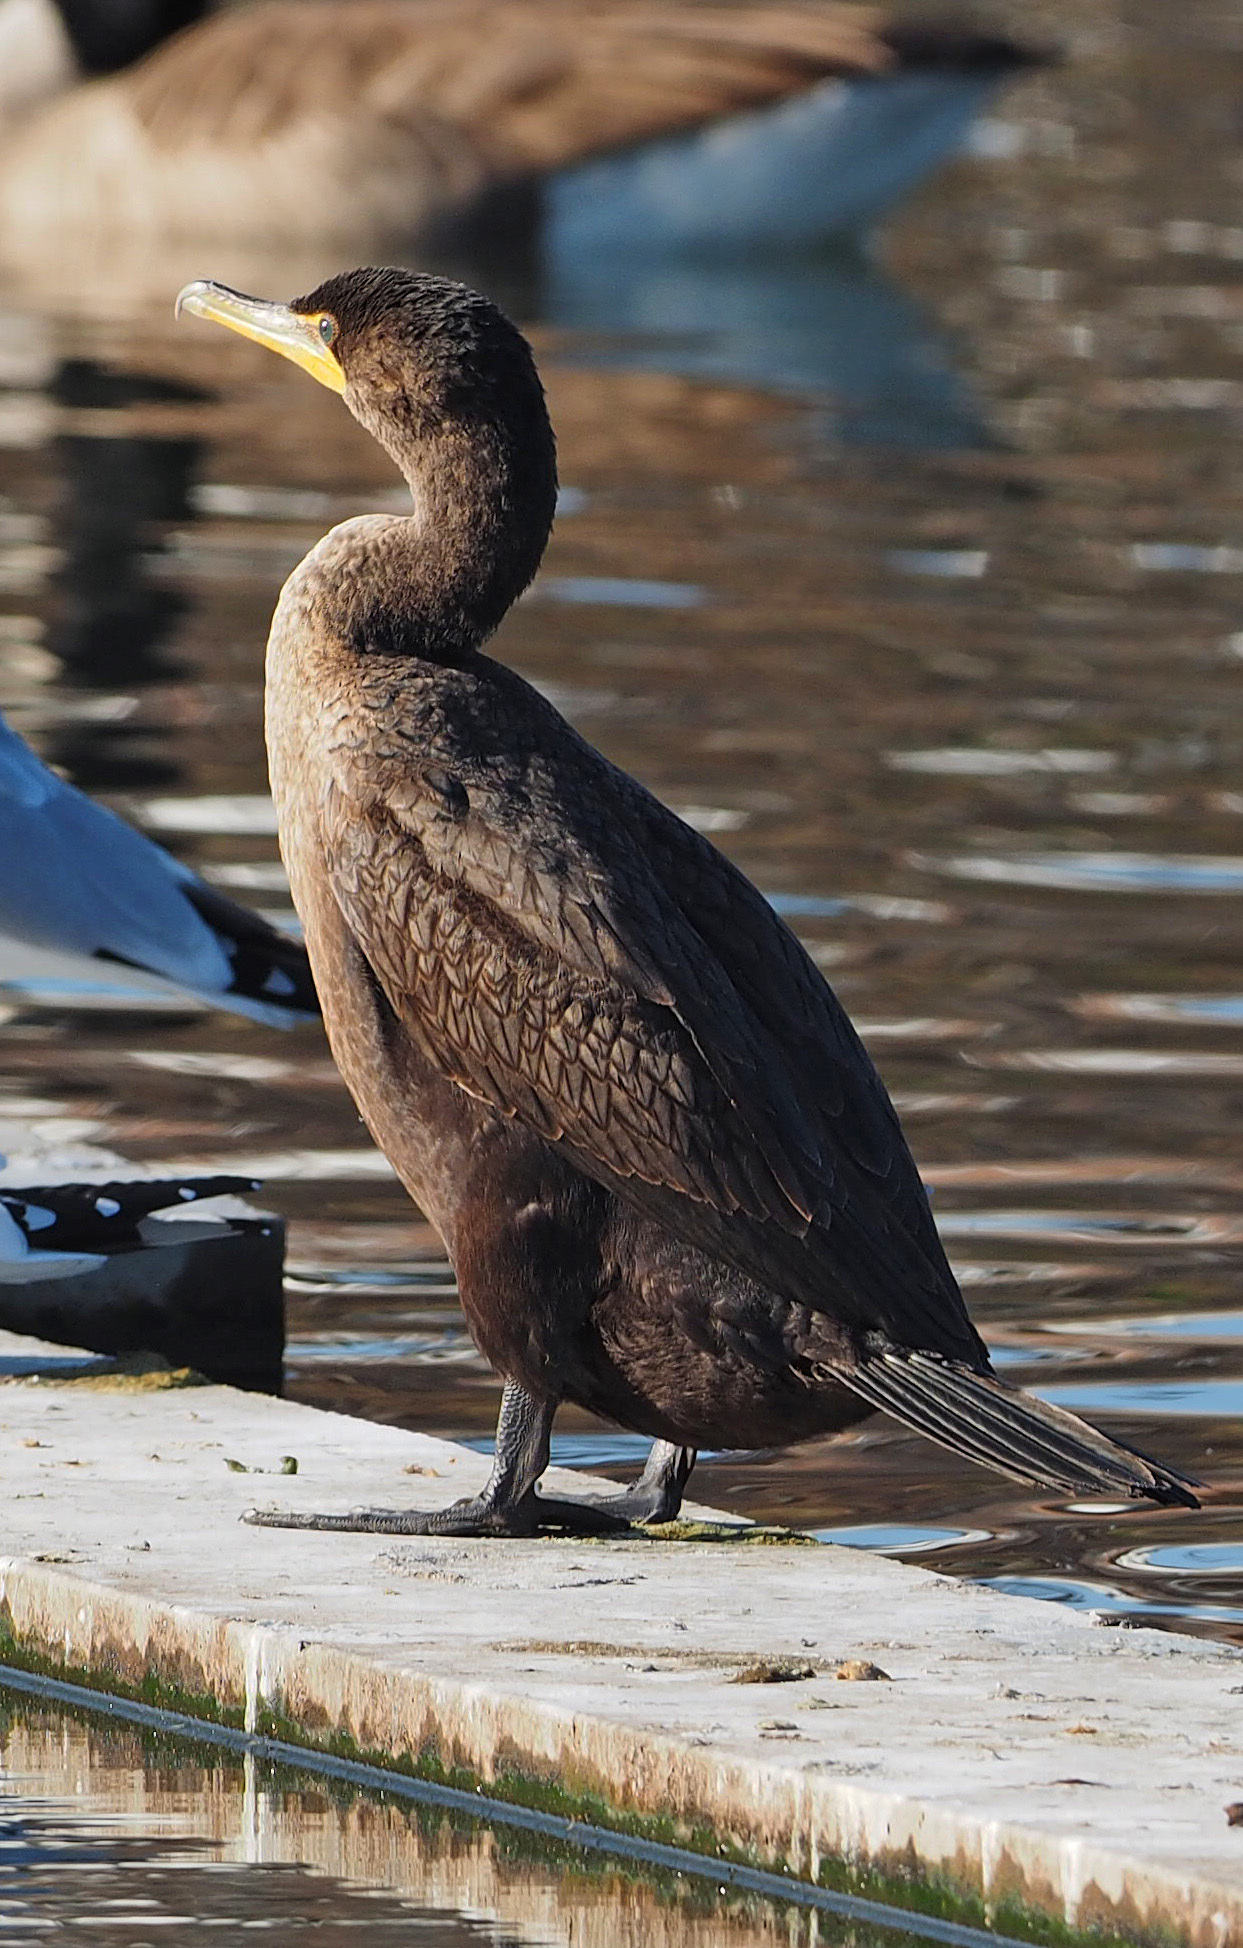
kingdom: Animalia
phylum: Chordata
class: Aves
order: Suliformes
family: Phalacrocoracidae
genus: Phalacrocorax
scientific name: Phalacrocorax auritus
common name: Double-crested cormorant
